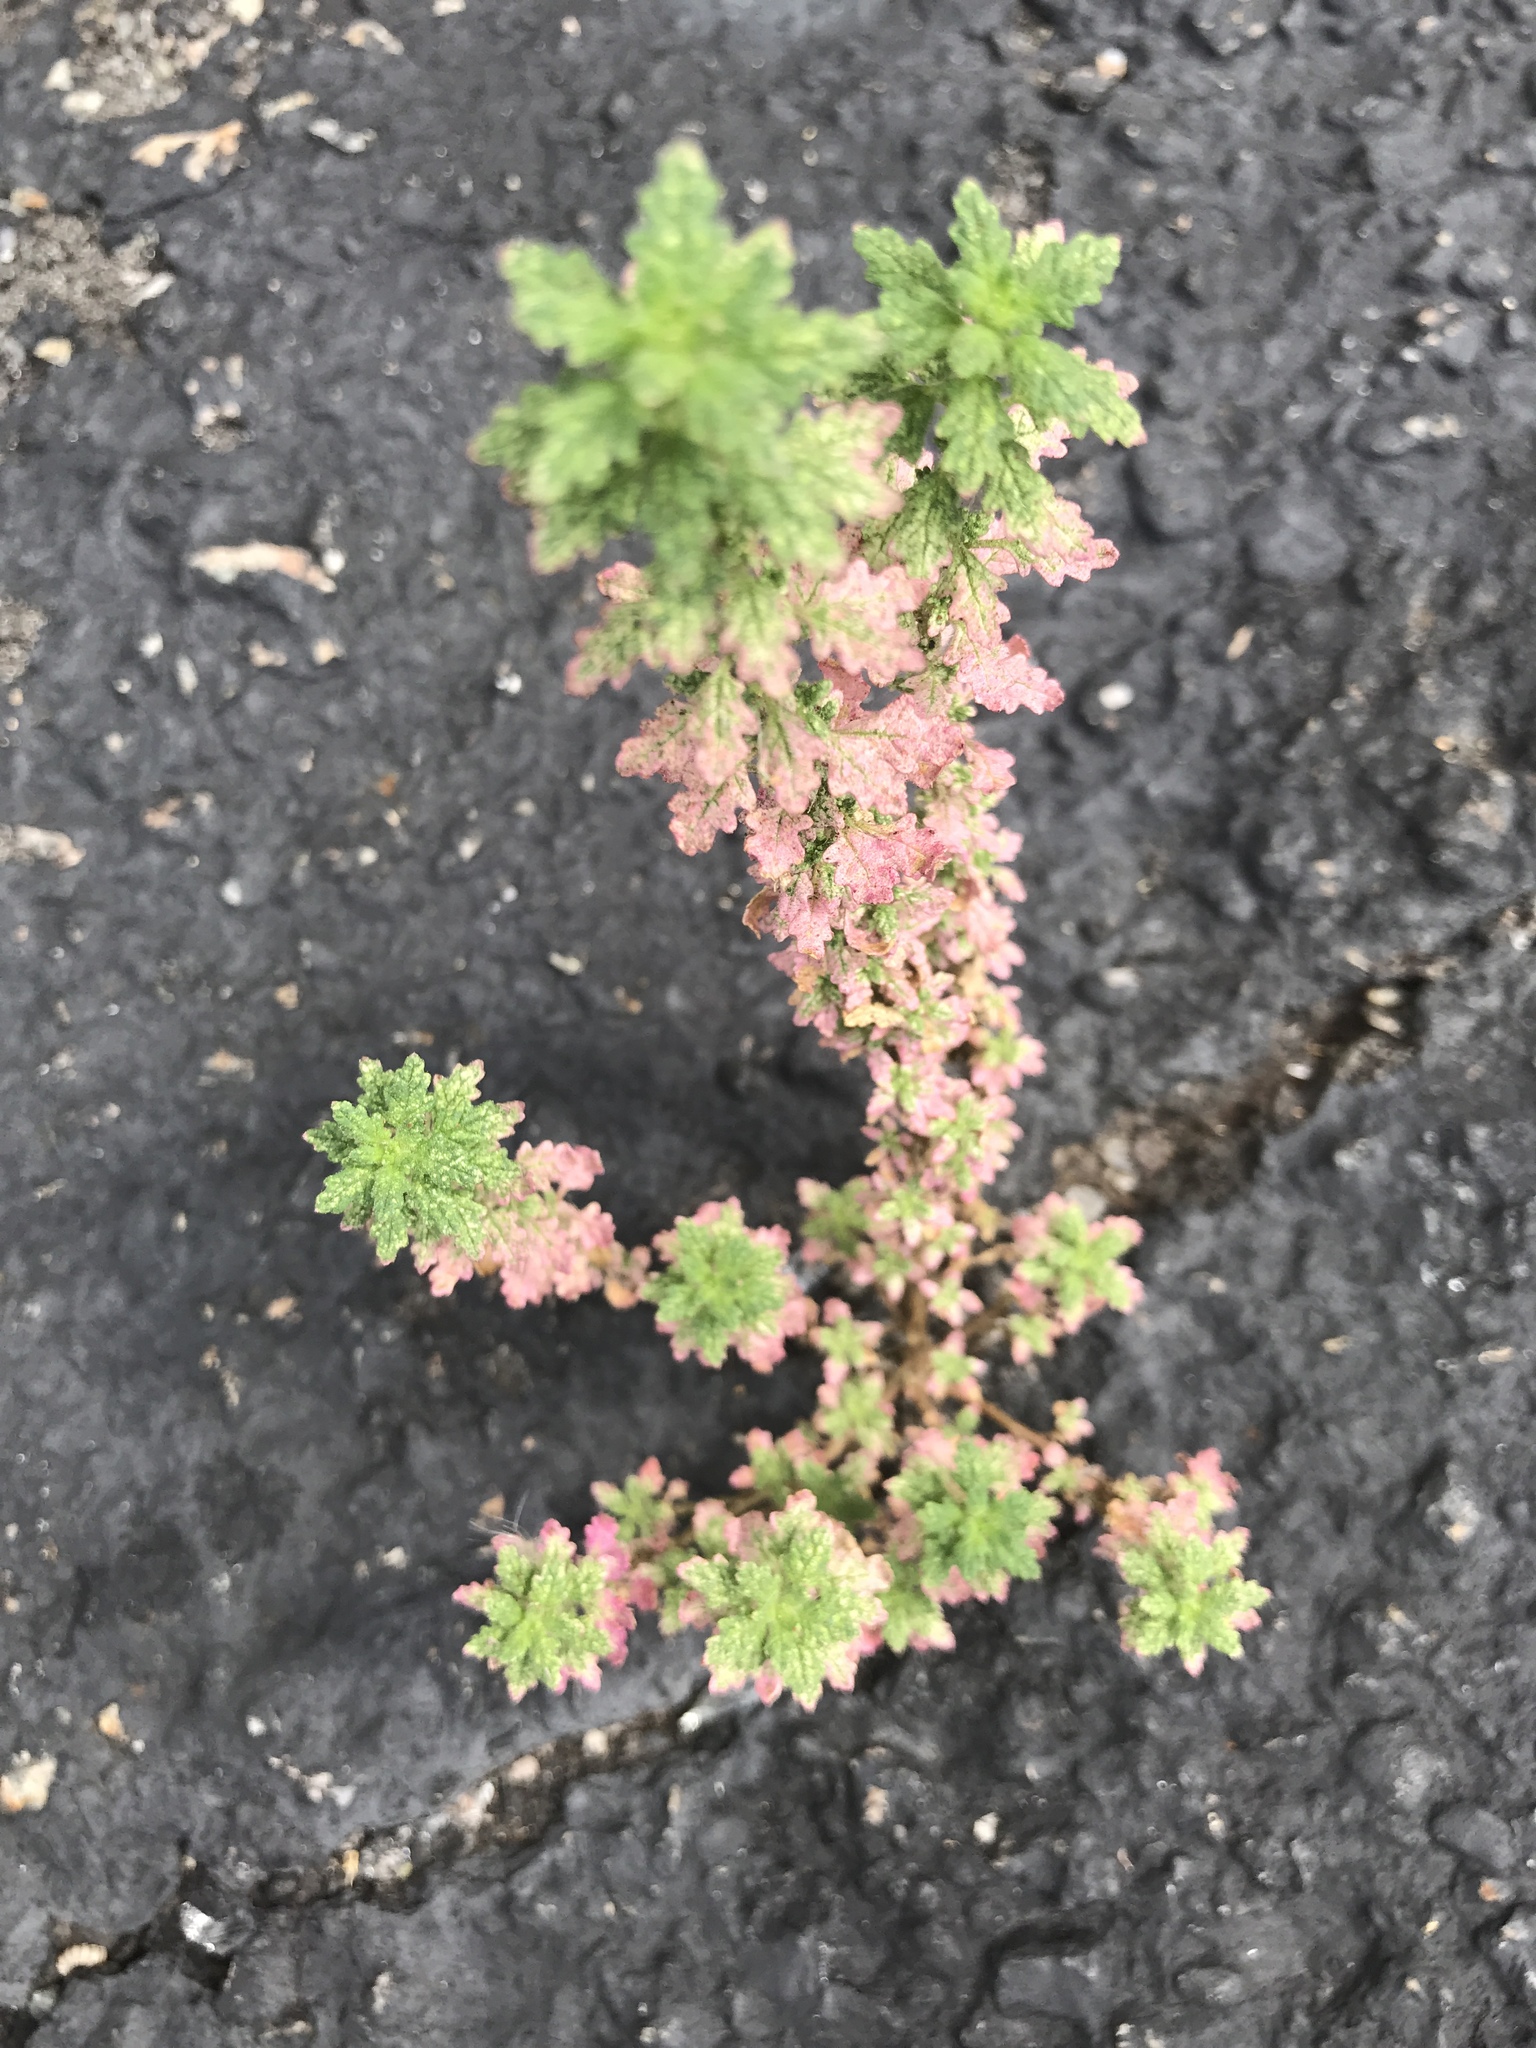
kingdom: Plantae
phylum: Tracheophyta
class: Magnoliopsida
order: Caryophyllales
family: Amaranthaceae
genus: Dysphania
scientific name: Dysphania pumilio
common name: Clammy goosefoot
